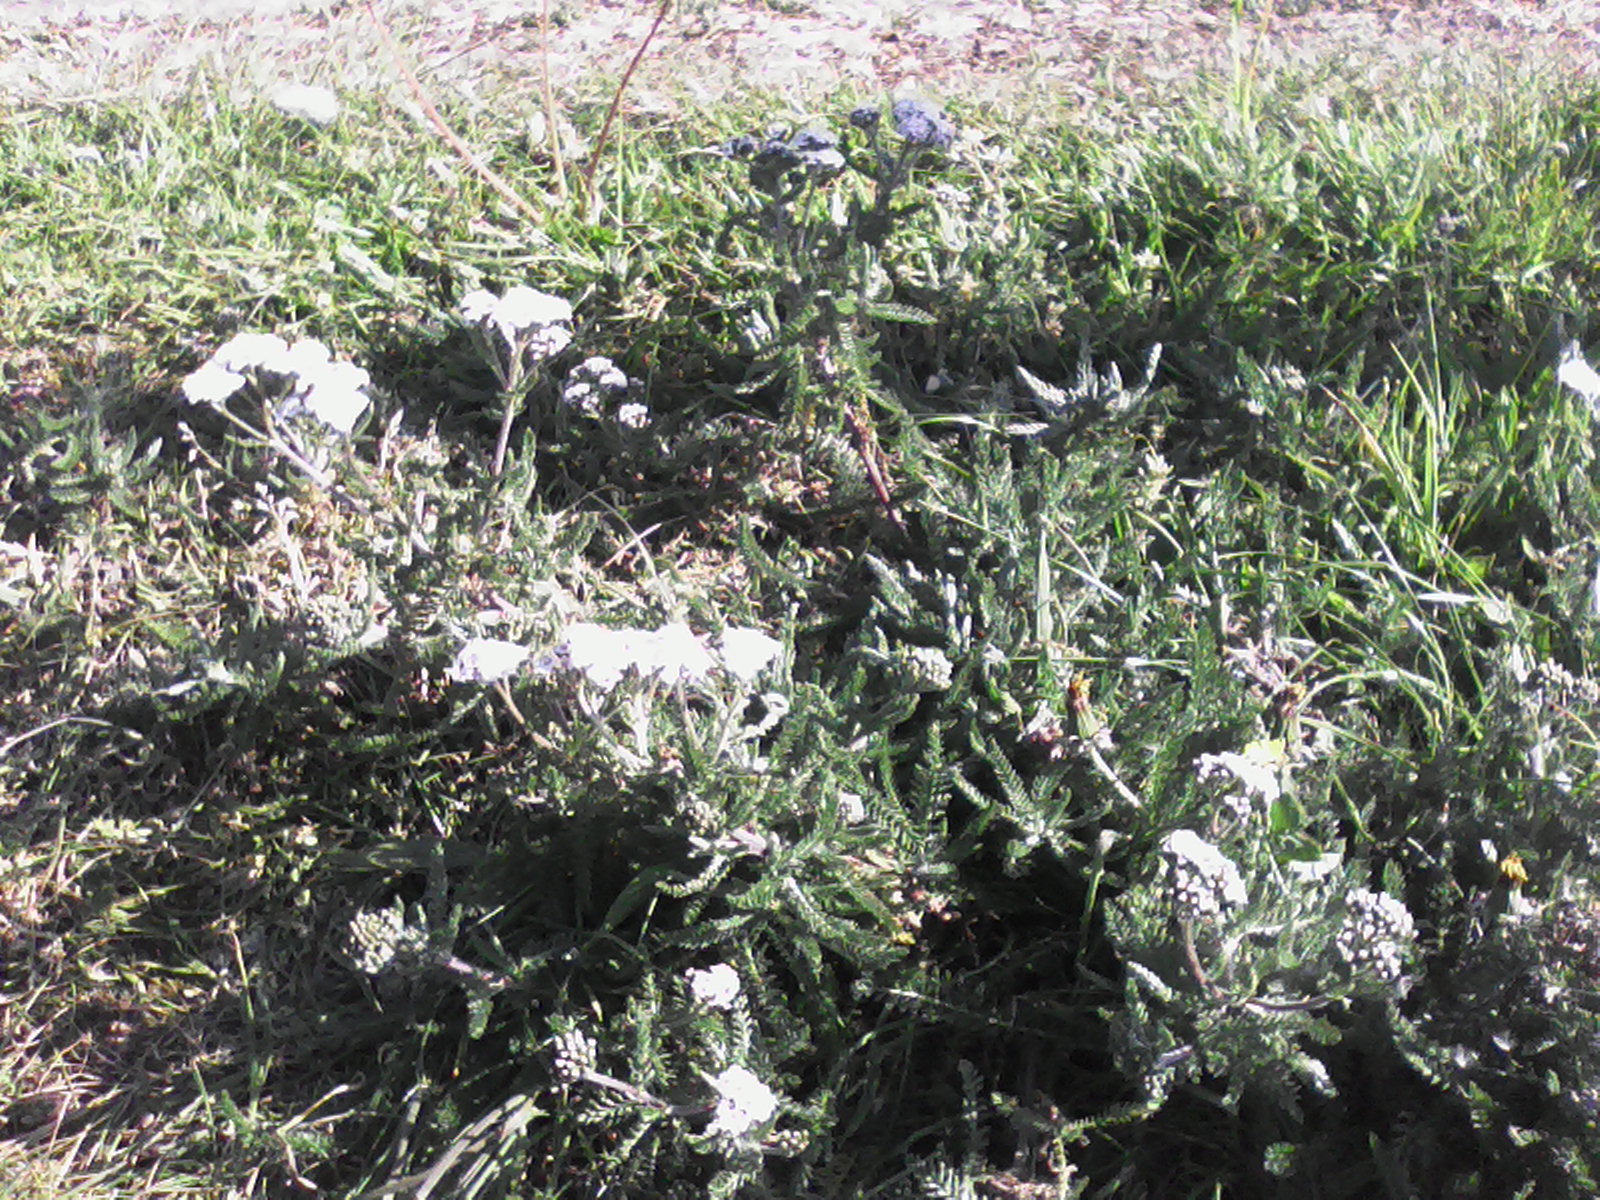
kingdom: Plantae
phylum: Tracheophyta
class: Magnoliopsida
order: Asterales
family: Asteraceae
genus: Achillea
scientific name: Achillea millefolium
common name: Yarrow
